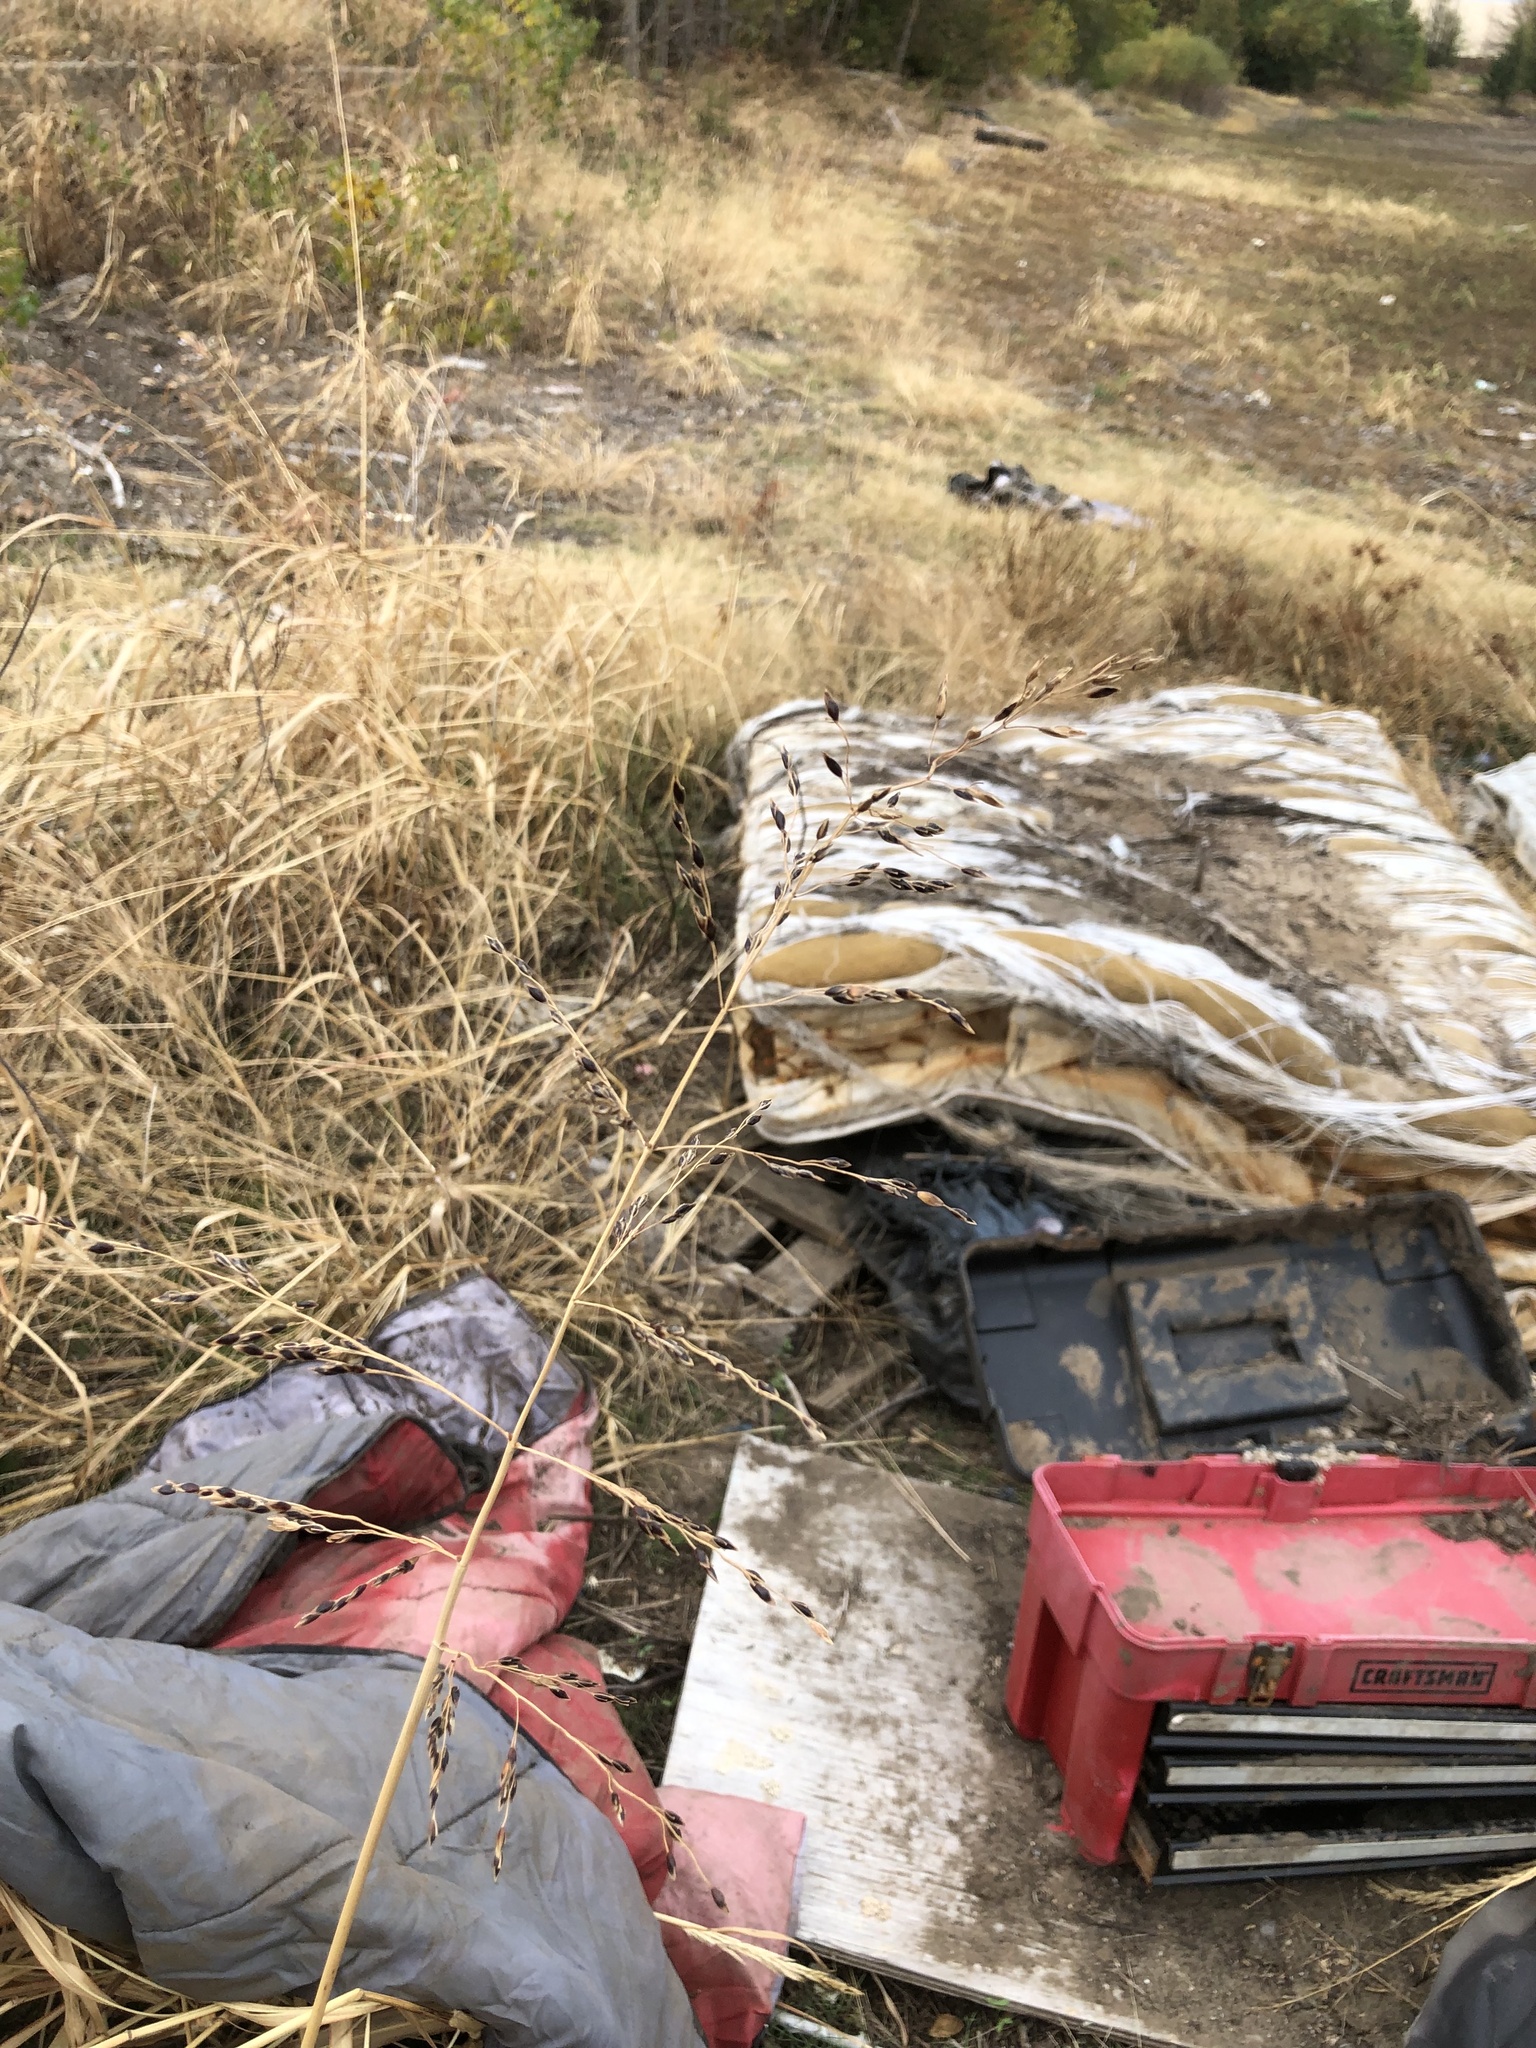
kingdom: Plantae
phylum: Tracheophyta
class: Liliopsida
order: Poales
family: Poaceae
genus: Sorghum
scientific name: Sorghum halepense
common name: Johnson-grass
